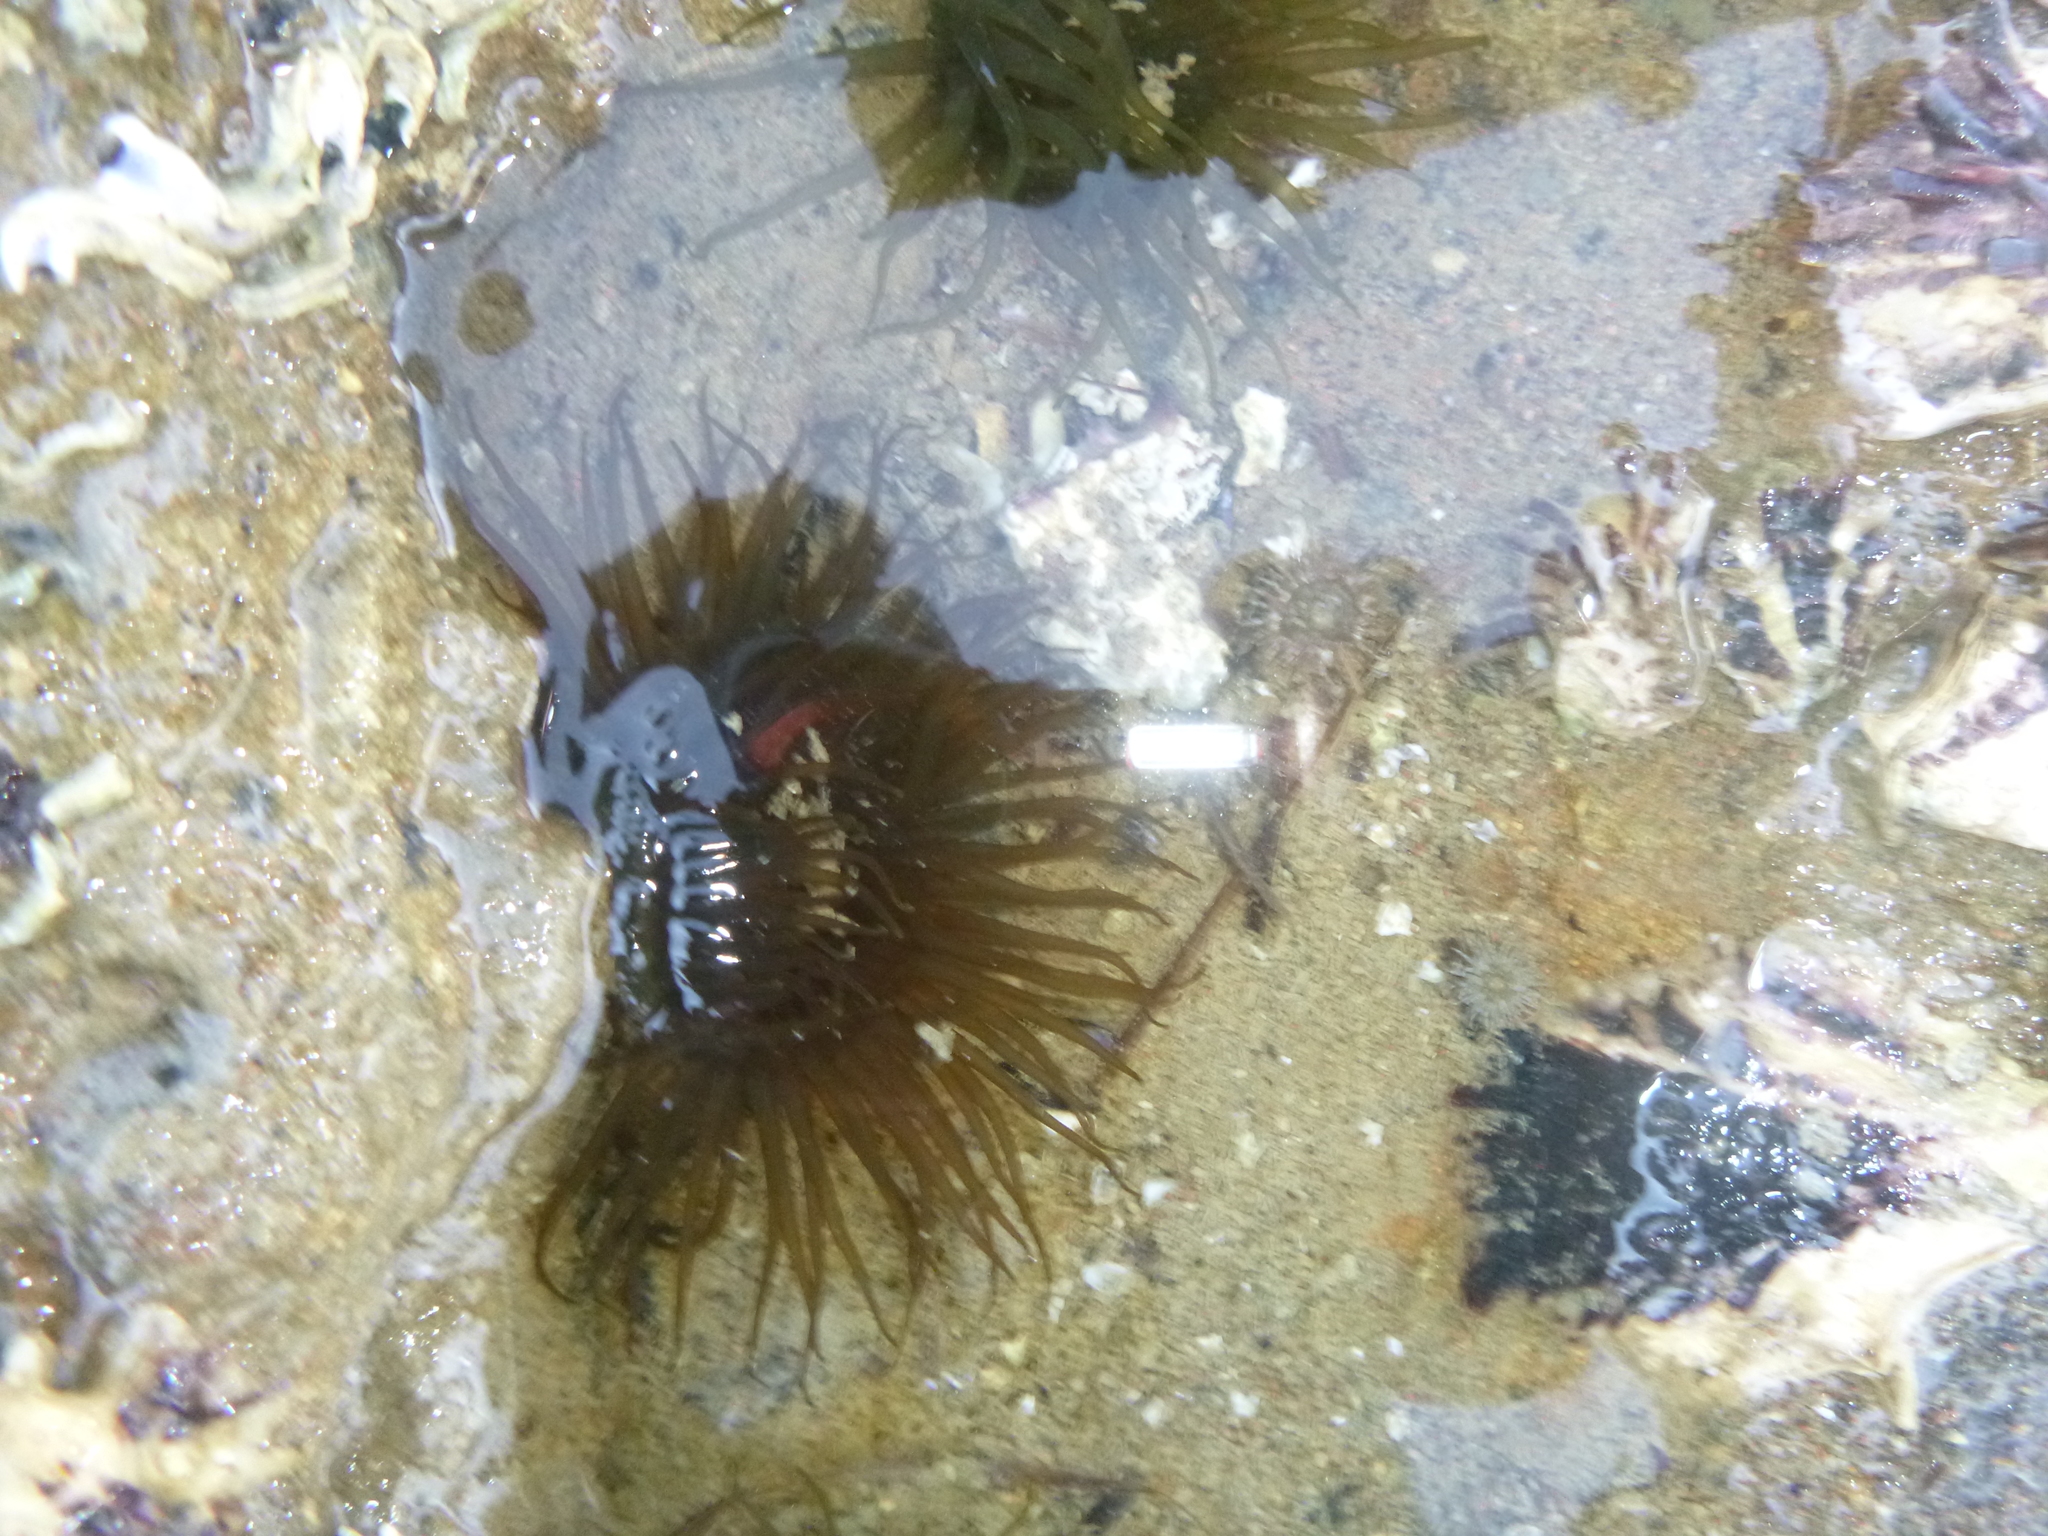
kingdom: Animalia
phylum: Cnidaria
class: Anthozoa
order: Actiniaria
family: Actiniidae
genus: Isactinia
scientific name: Isactinia olivacea
